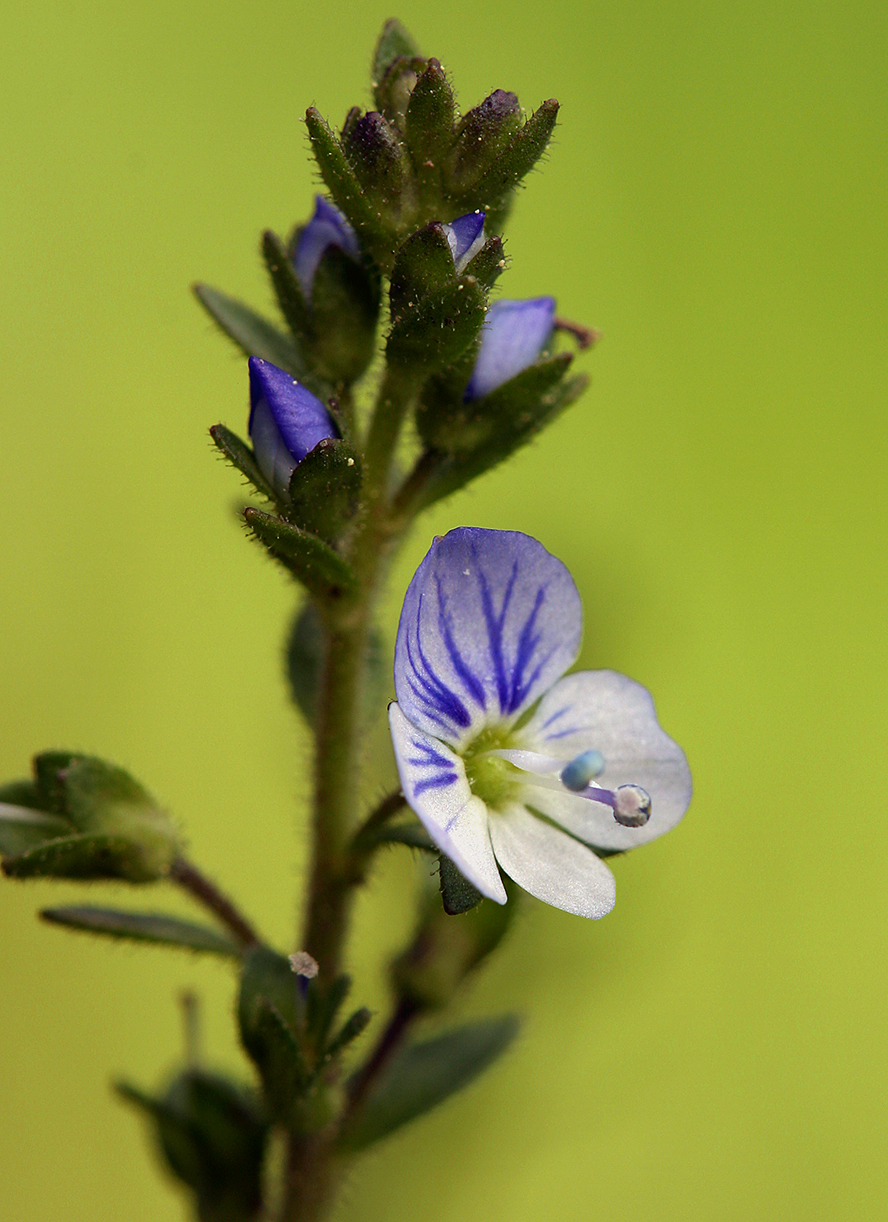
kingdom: Plantae
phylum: Tracheophyta
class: Magnoliopsida
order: Lamiales
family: Plantaginaceae
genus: Veronica
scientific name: Veronica serpyllifolia
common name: Thyme-leaved speedwell
